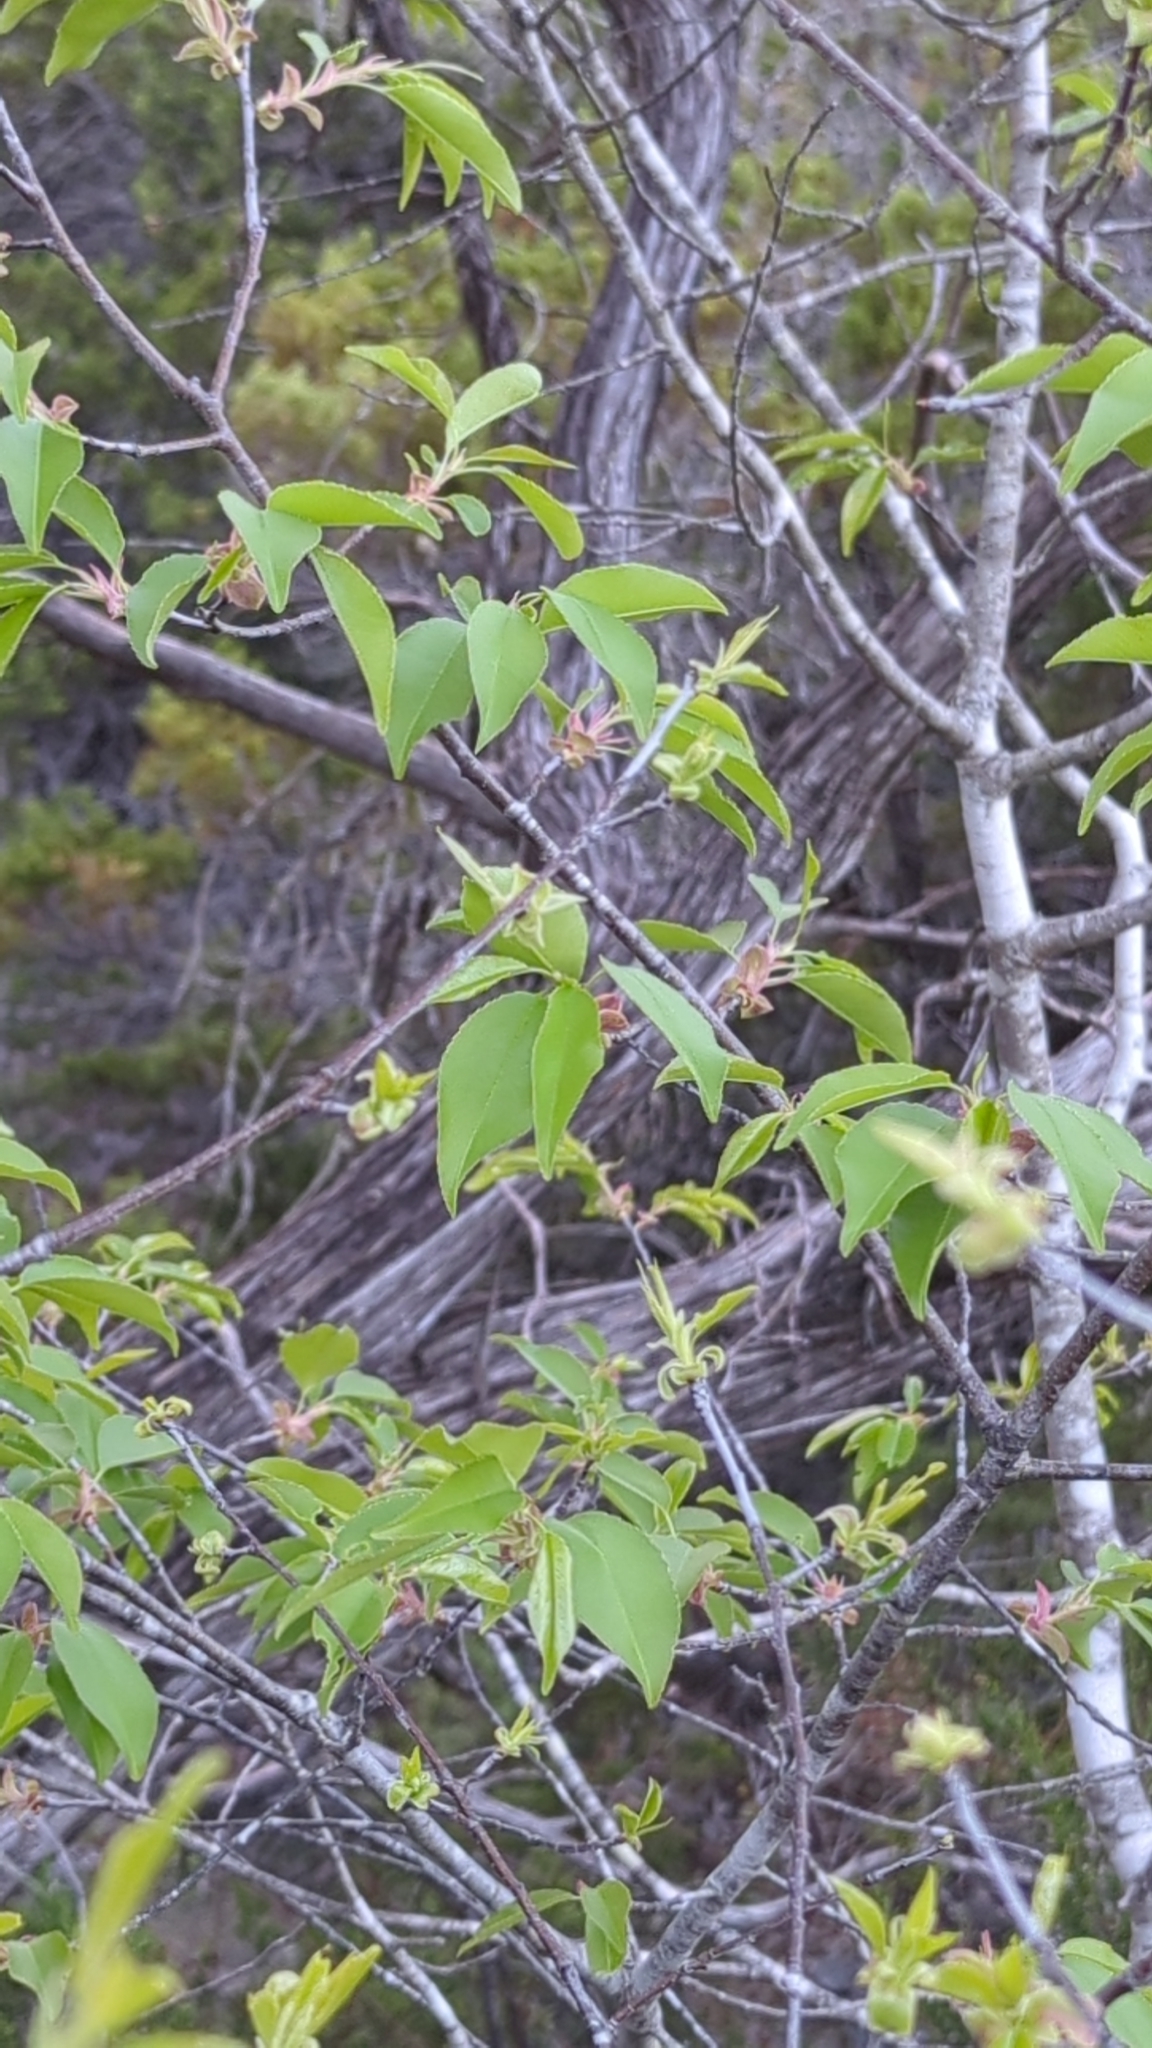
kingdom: Plantae
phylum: Tracheophyta
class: Magnoliopsida
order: Rosales
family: Rosaceae
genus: Prunus
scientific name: Prunus serotina
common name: Black cherry
